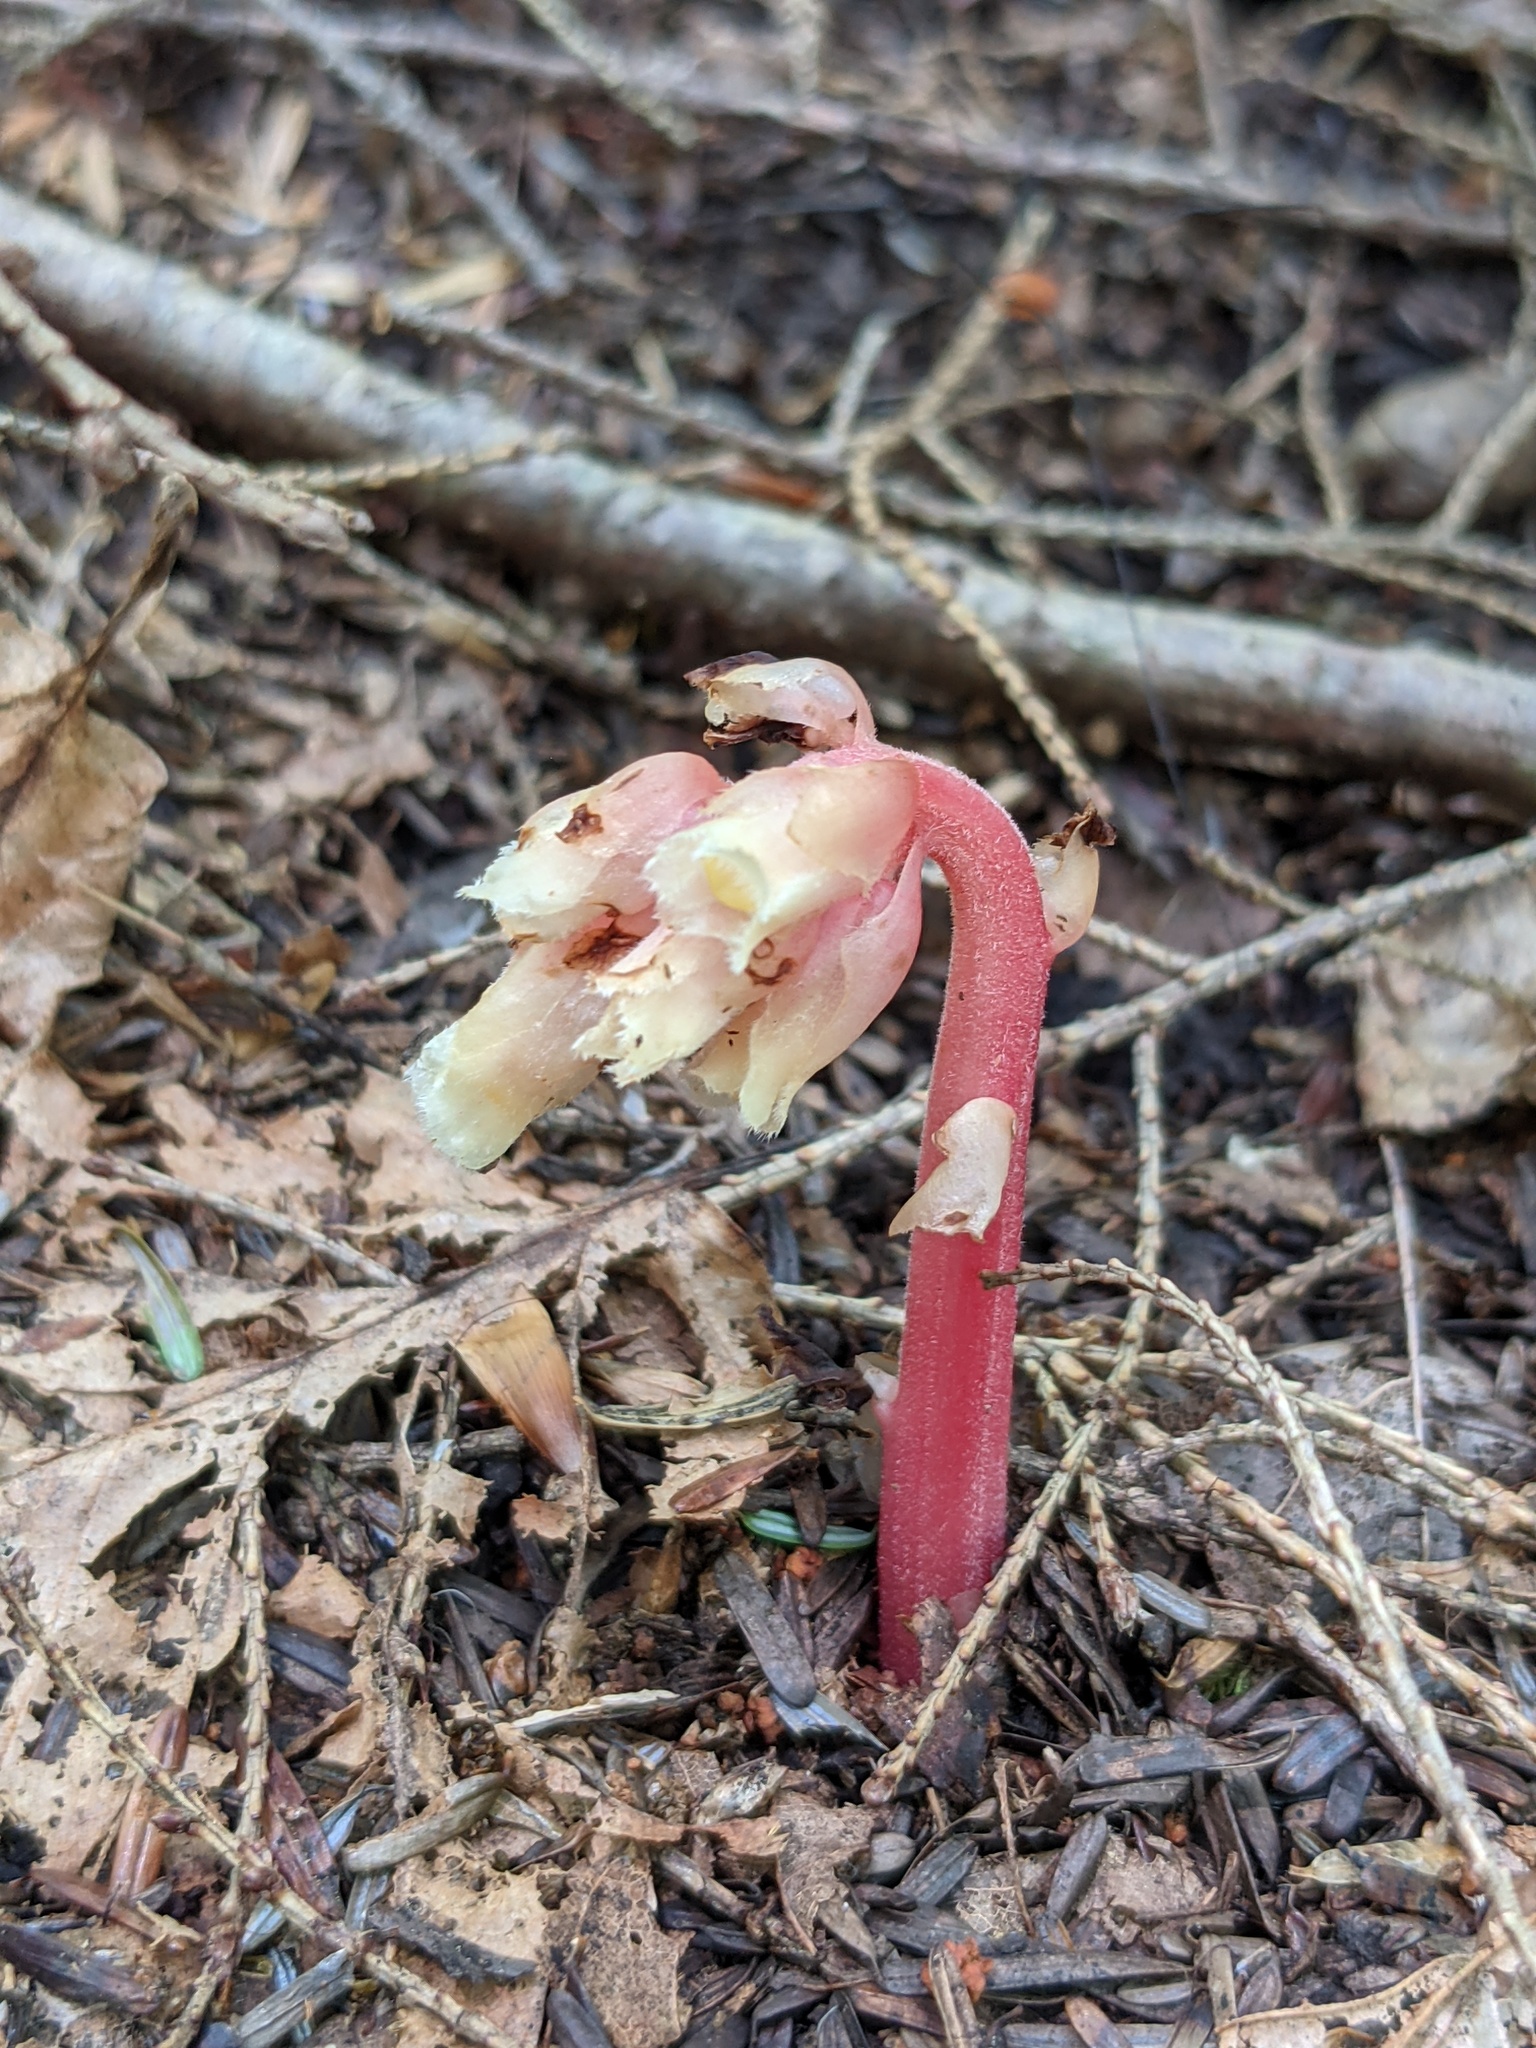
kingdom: Plantae
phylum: Tracheophyta
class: Magnoliopsida
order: Ericales
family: Ericaceae
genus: Hypopitys
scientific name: Hypopitys monotropa
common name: Yellow bird's-nest
